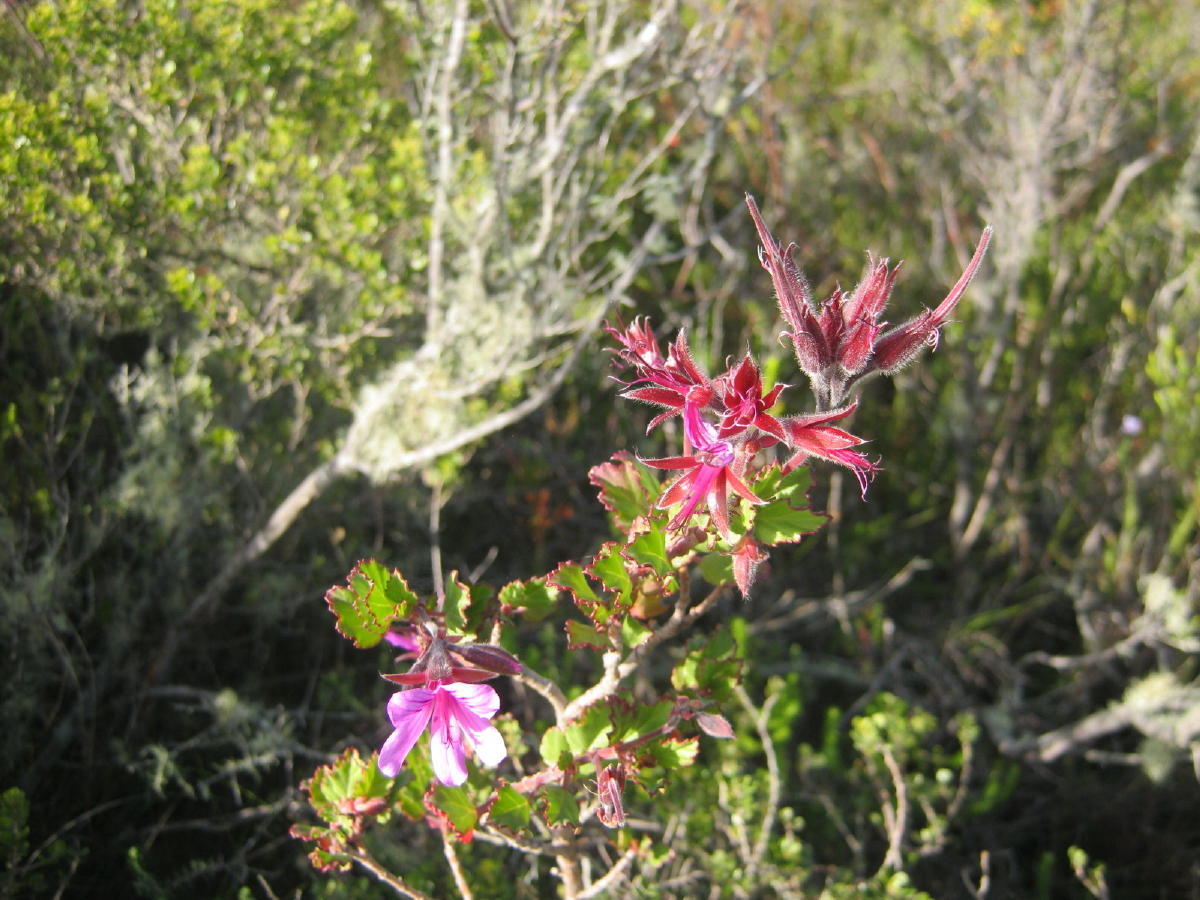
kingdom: Plantae
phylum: Tracheophyta
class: Magnoliopsida
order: Geraniales
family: Geraniaceae
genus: Pelargonium
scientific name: Pelargonium betulinum
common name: Birch-leaf pelargonium
